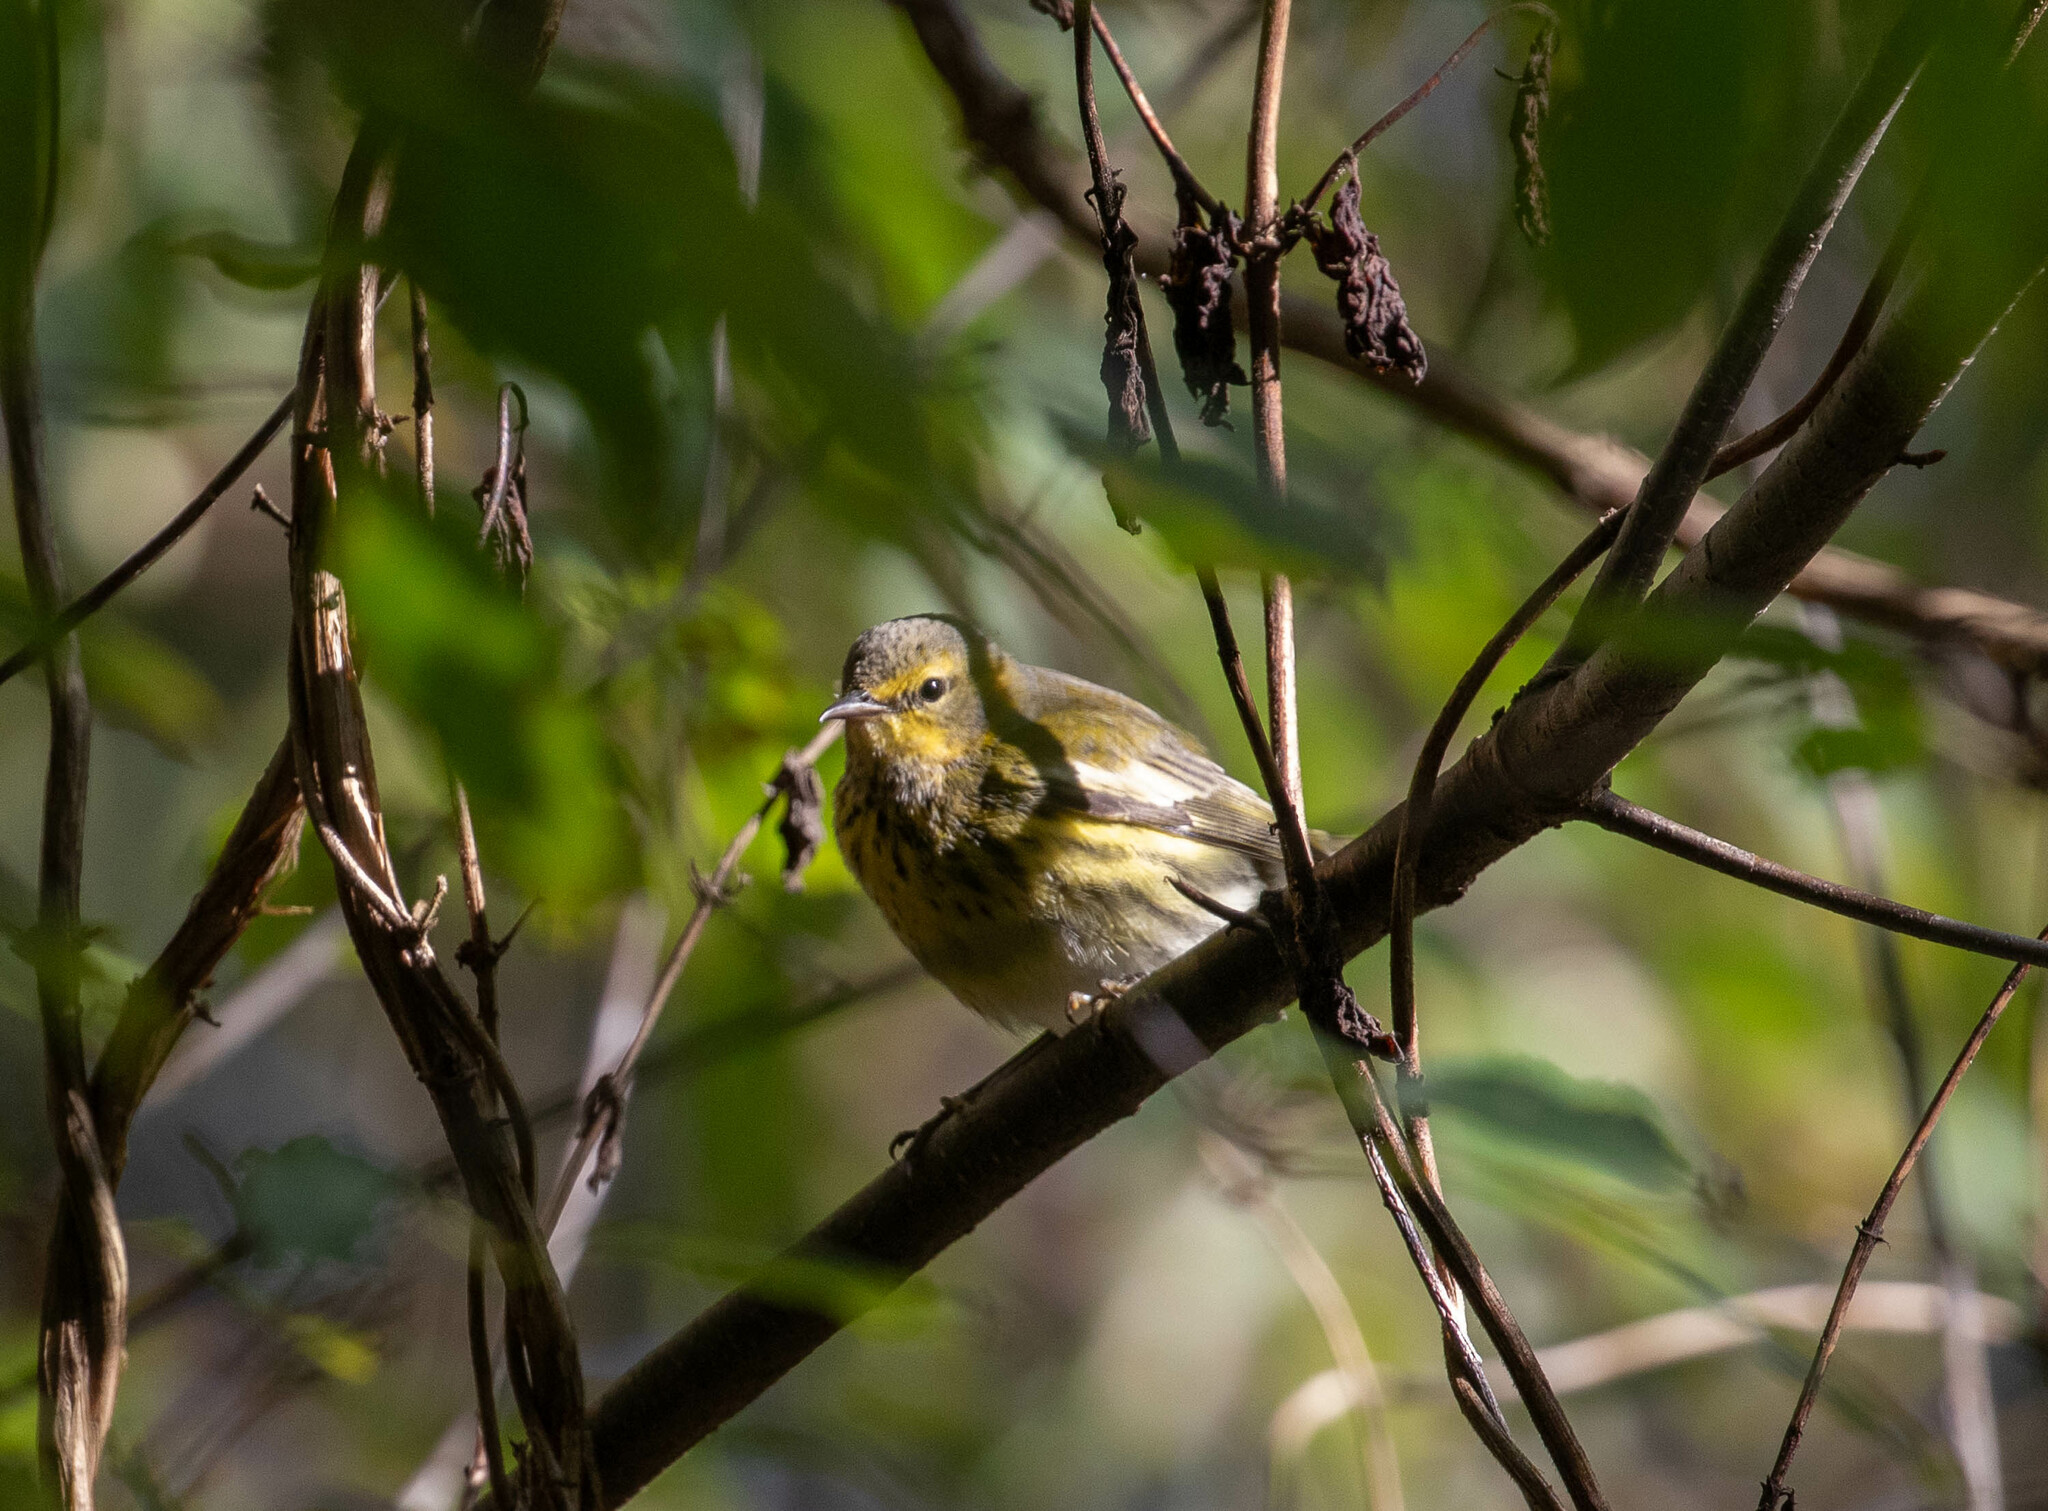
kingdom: Animalia
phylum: Chordata
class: Aves
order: Passeriformes
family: Parulidae
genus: Setophaga
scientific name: Setophaga tigrina
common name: Cape may warbler
